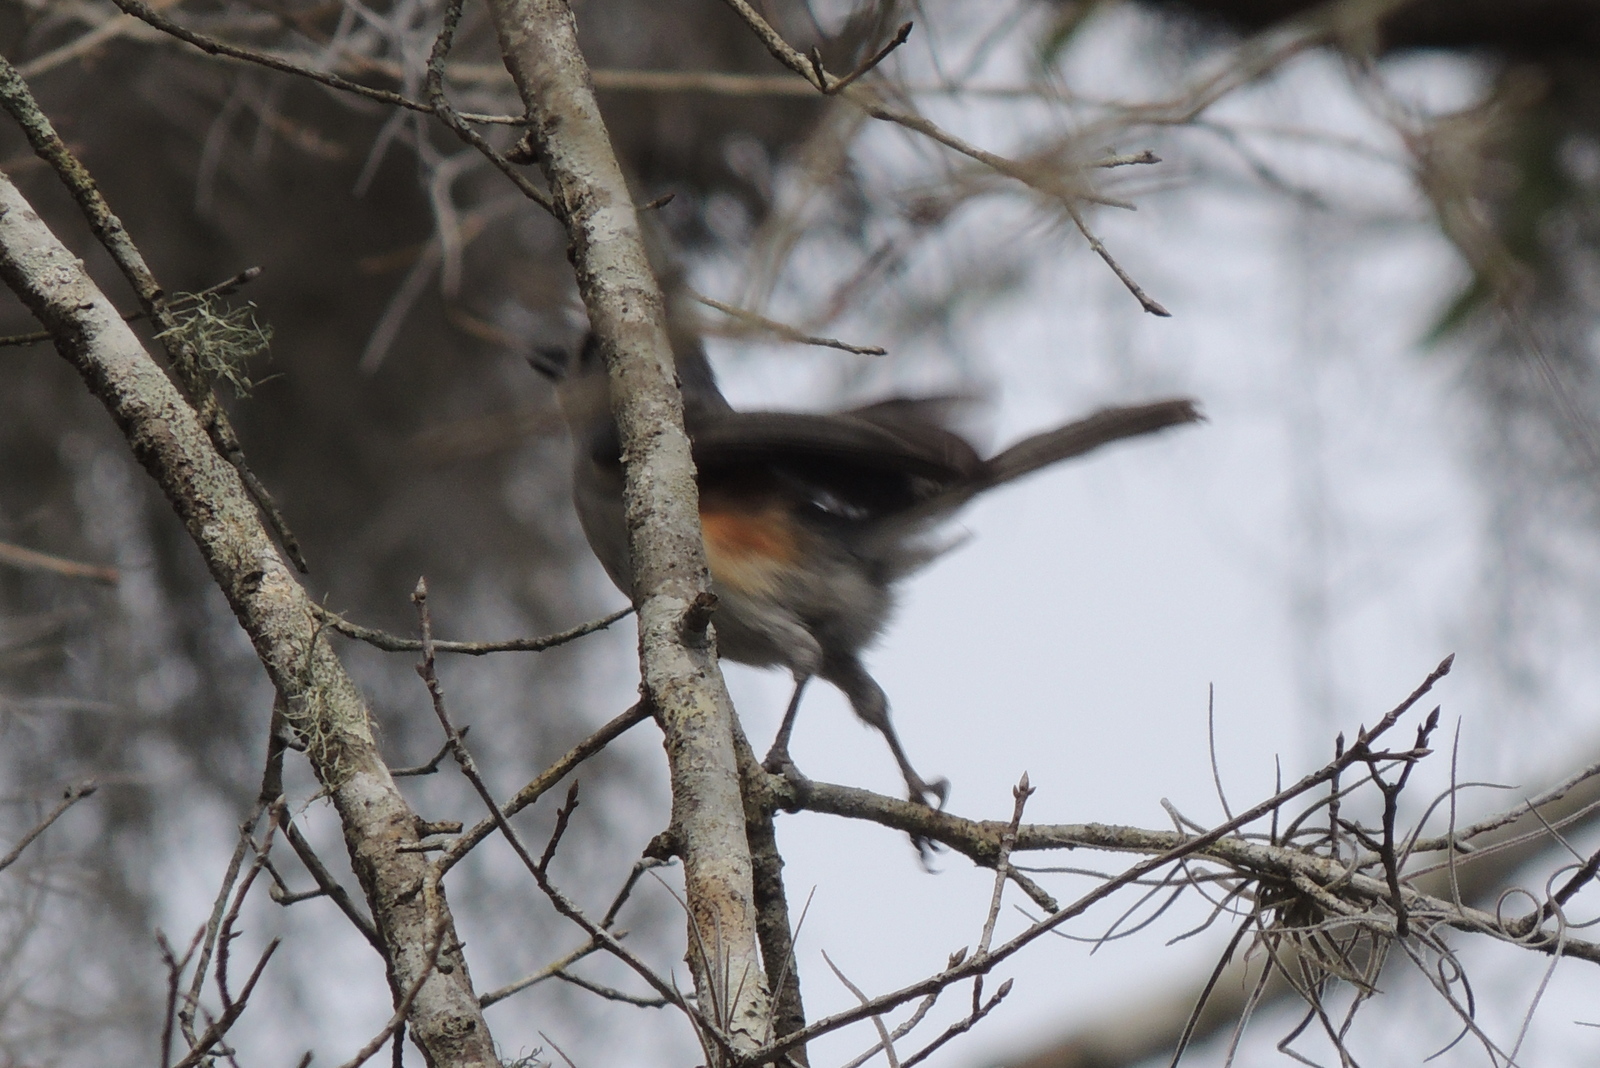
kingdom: Animalia
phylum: Chordata
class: Aves
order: Passeriformes
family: Paridae
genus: Baeolophus
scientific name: Baeolophus bicolor
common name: Tufted titmouse
